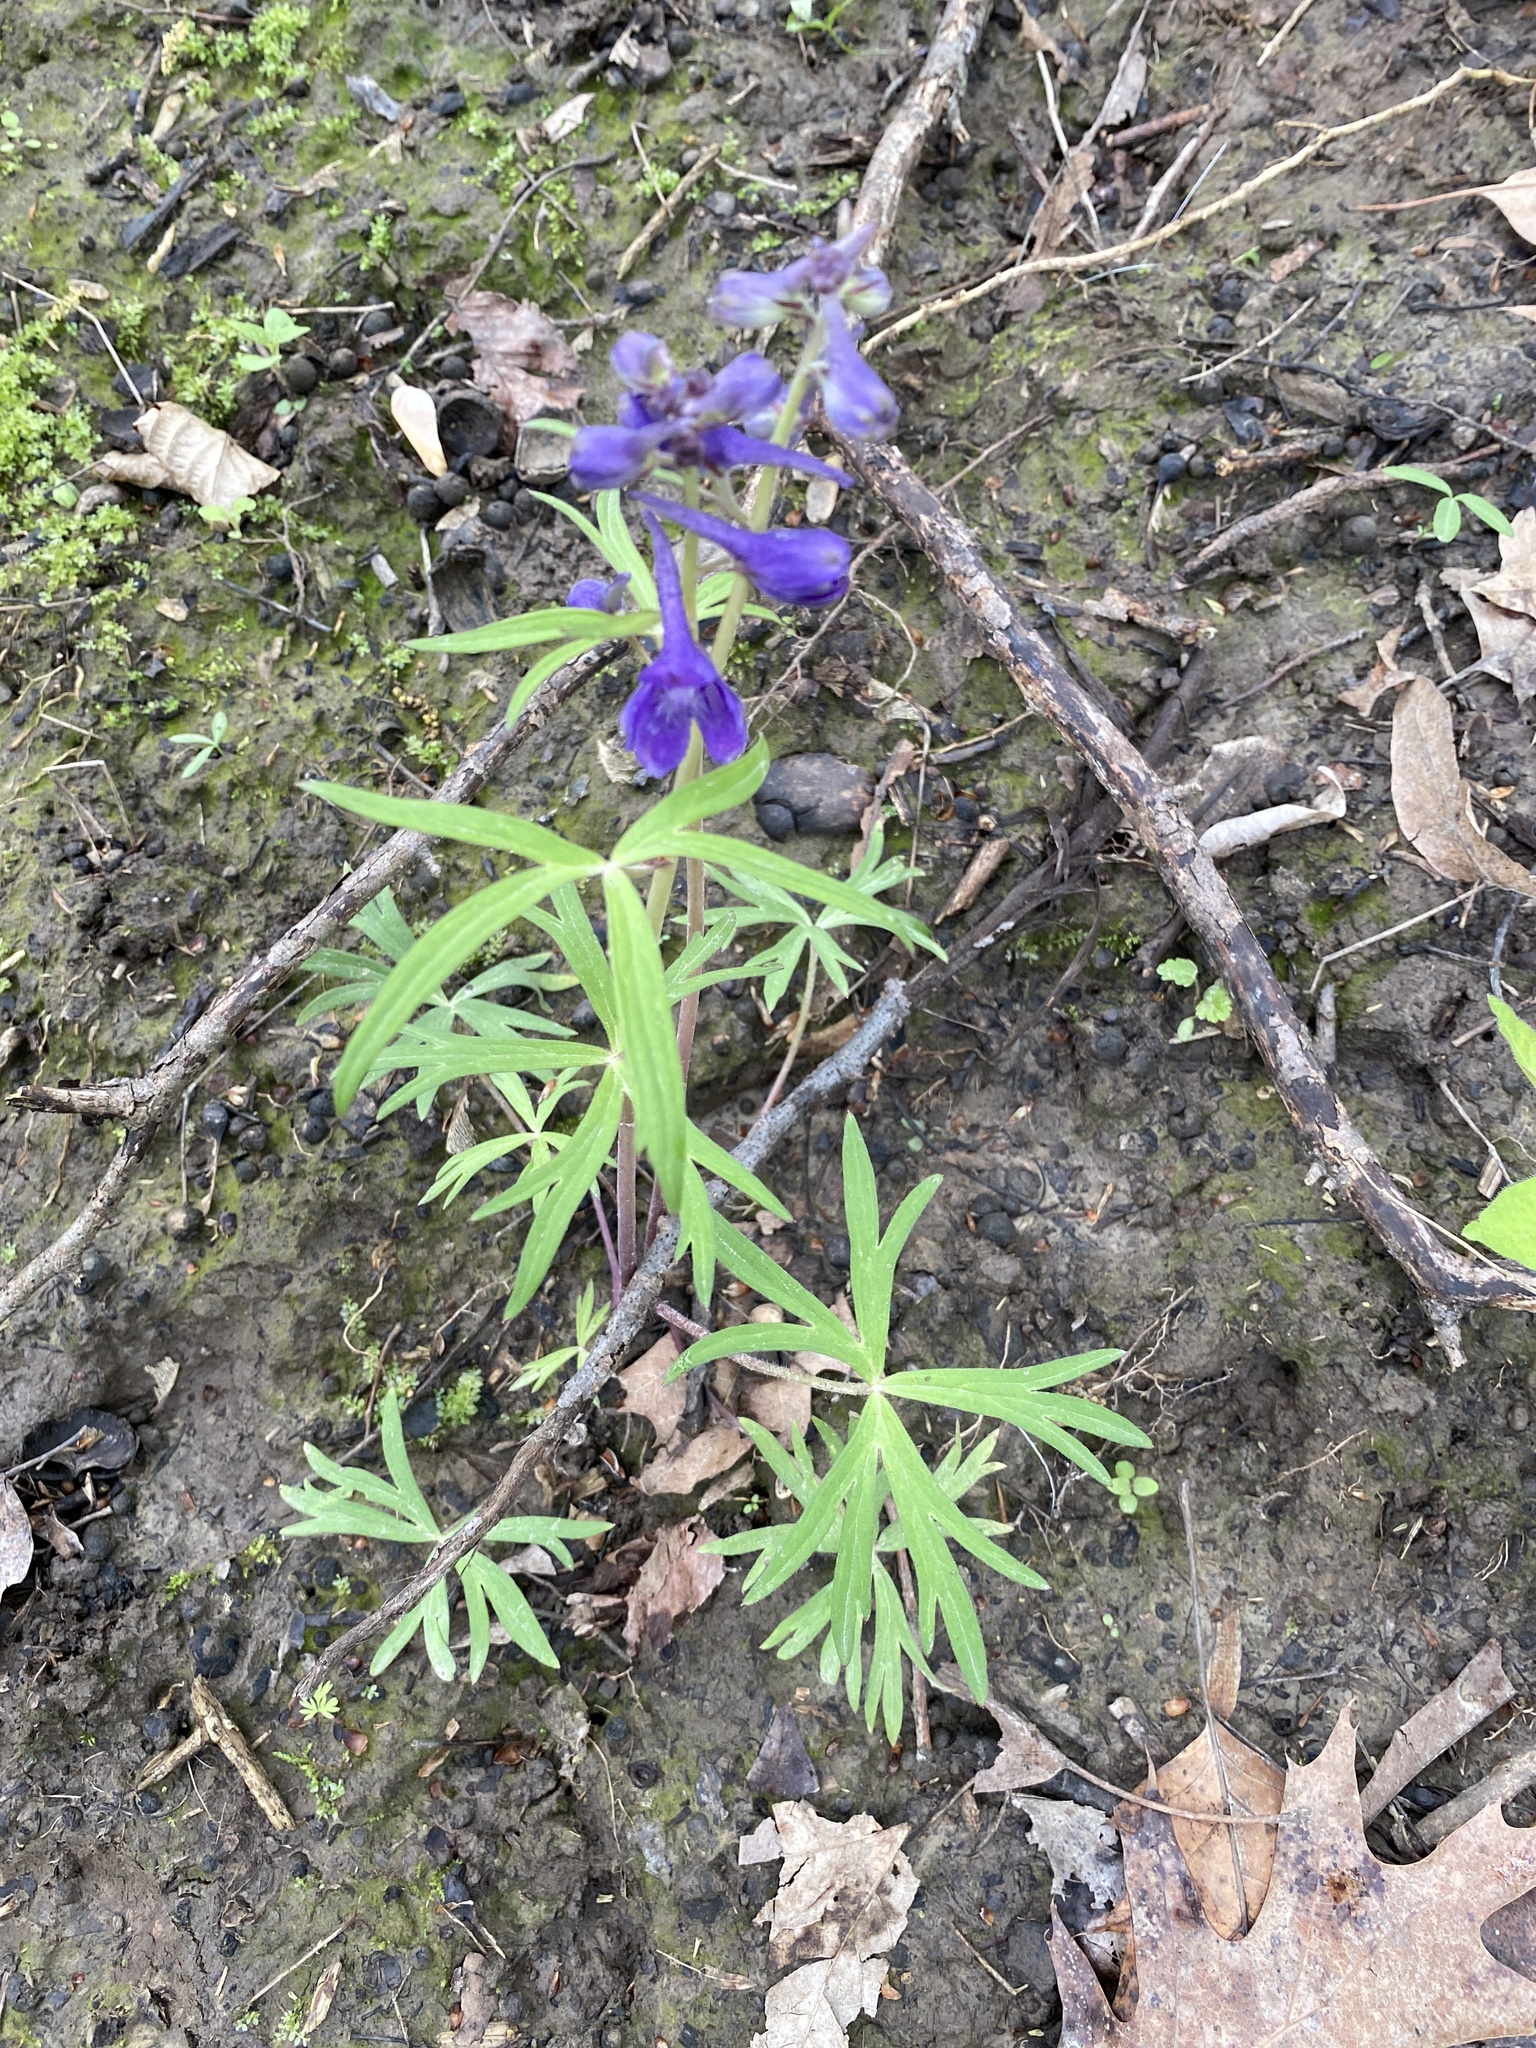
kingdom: Plantae
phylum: Tracheophyta
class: Magnoliopsida
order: Ranunculales
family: Ranunculaceae
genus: Delphinium
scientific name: Delphinium tricorne
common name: Dwarf larkspur
